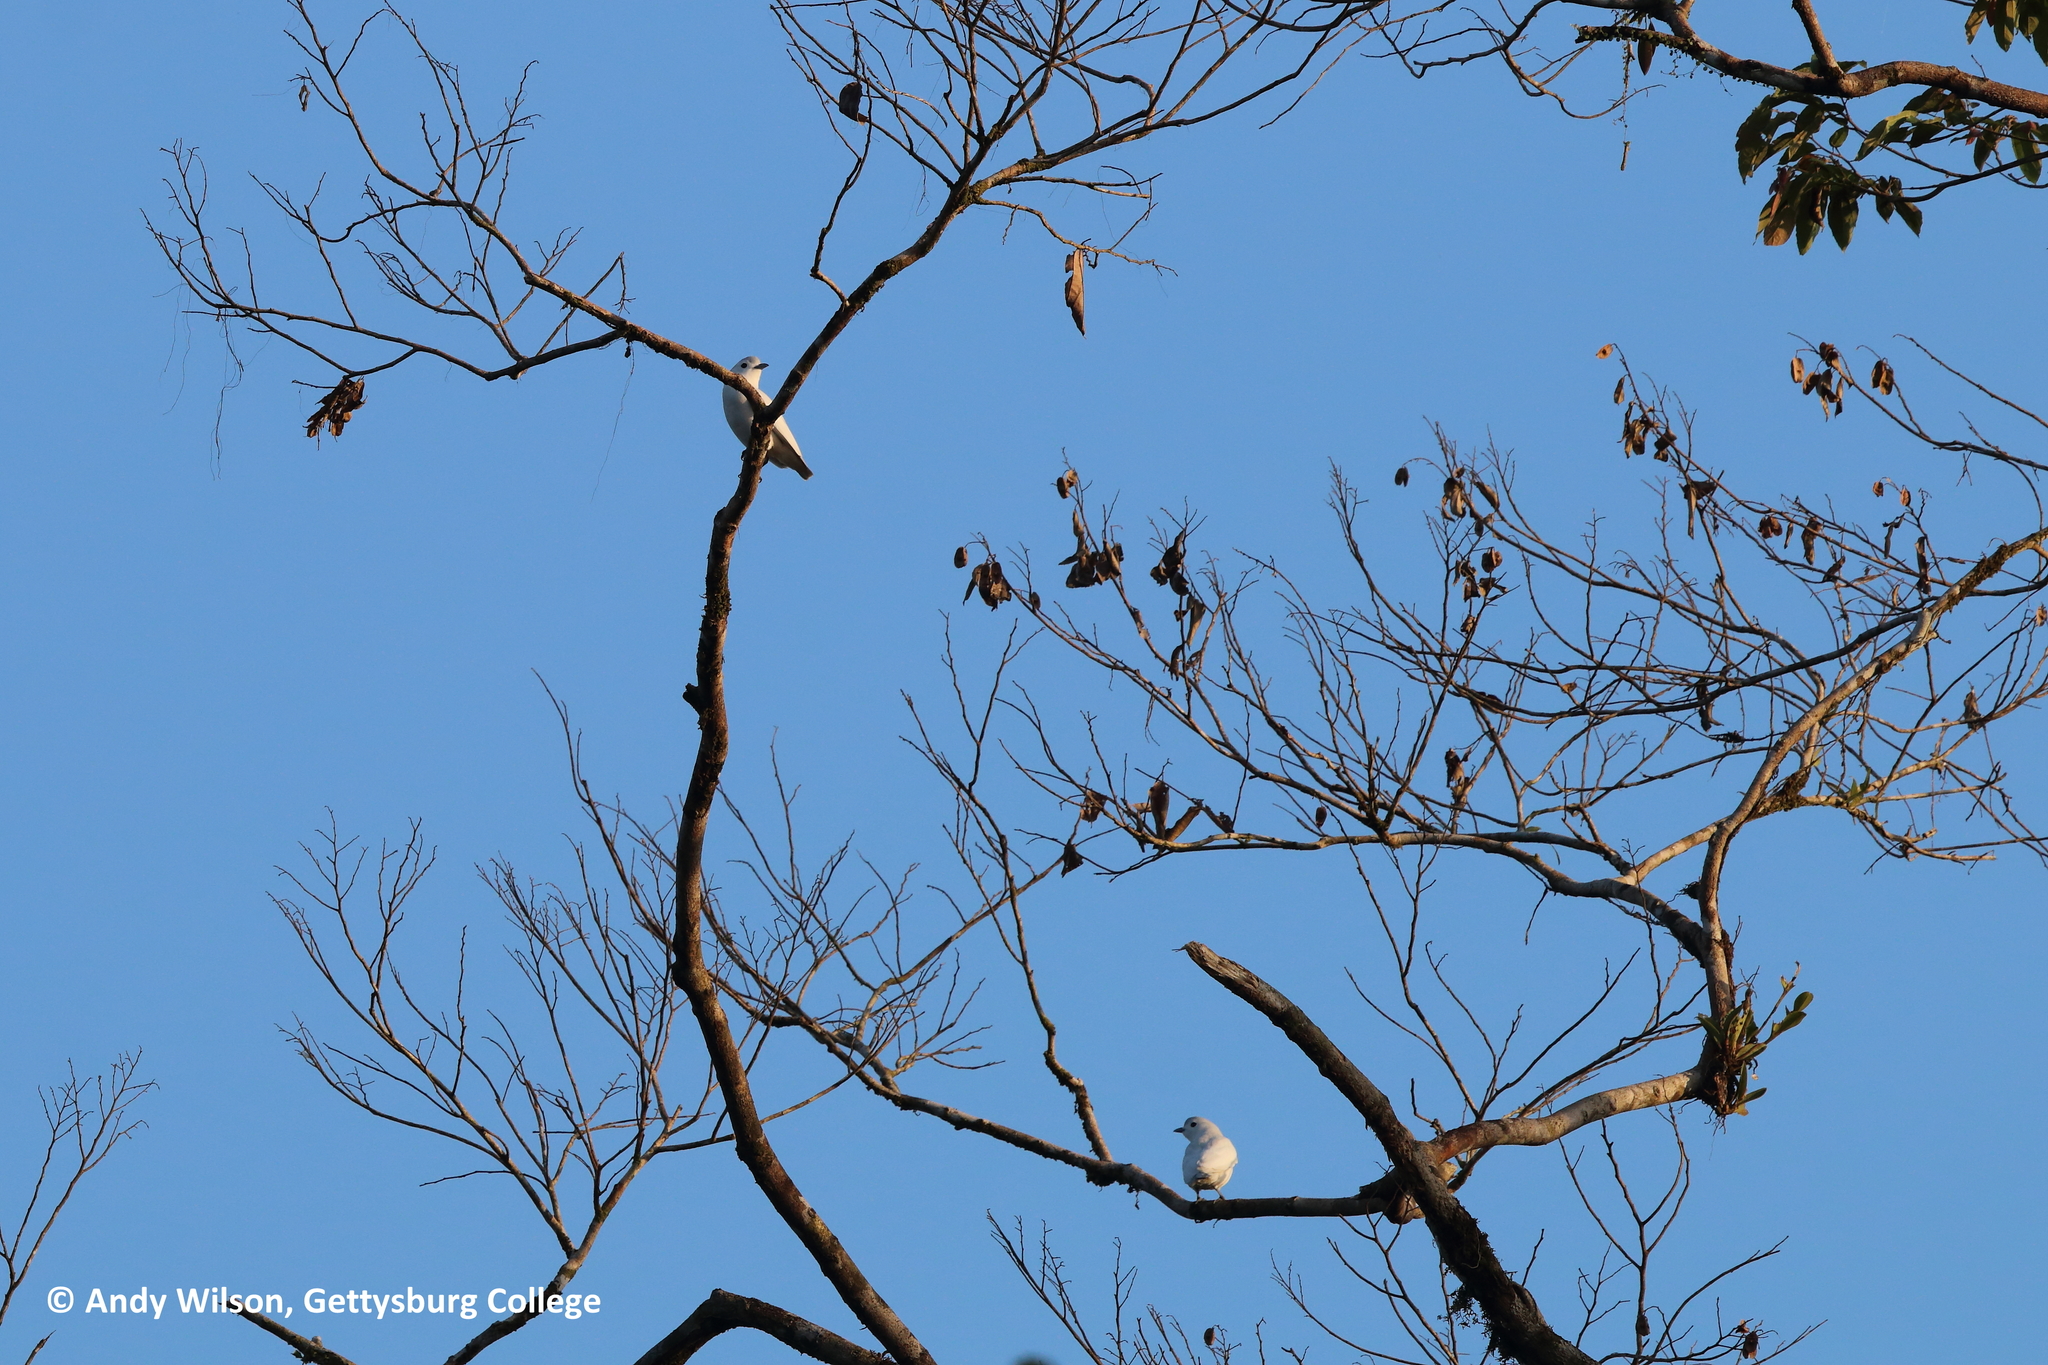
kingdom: Animalia
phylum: Chordata
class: Aves
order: Passeriformes
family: Cotingidae
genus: Carpodectes
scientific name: Carpodectes nitidus
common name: Snowy cotinga
